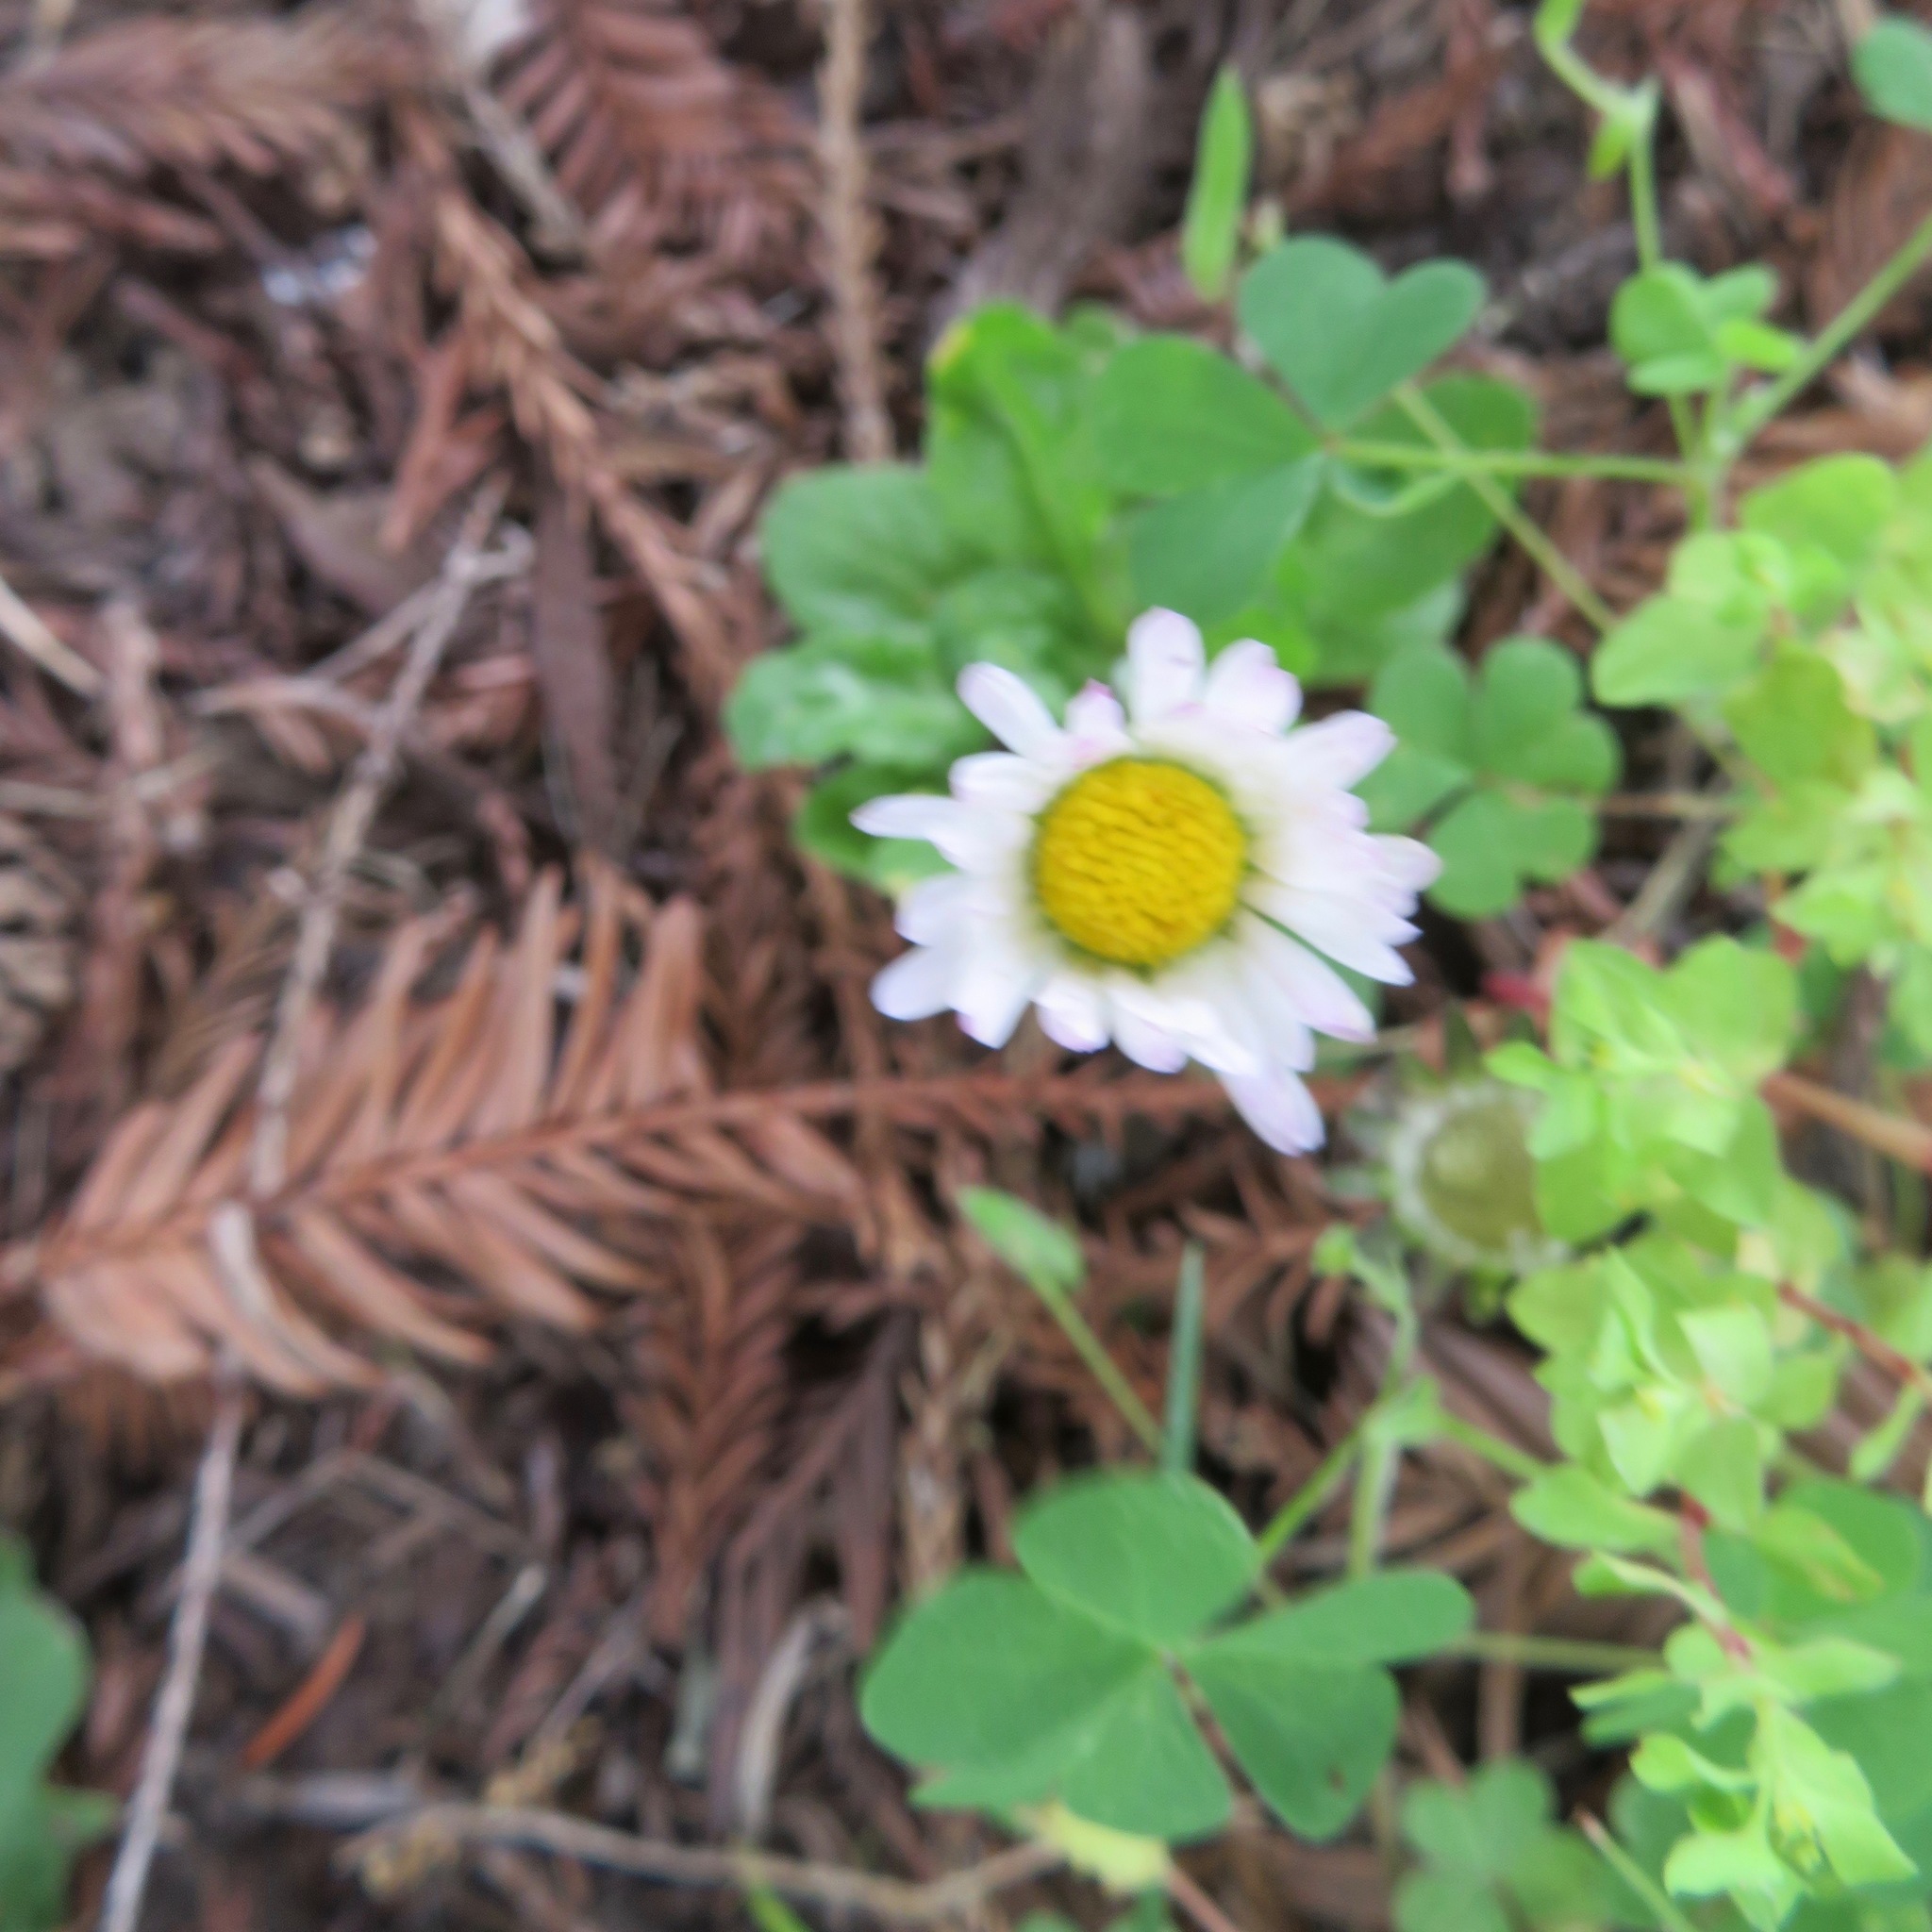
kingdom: Plantae
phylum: Tracheophyta
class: Magnoliopsida
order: Asterales
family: Asteraceae
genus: Bellis
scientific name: Bellis perennis
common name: Lawndaisy
